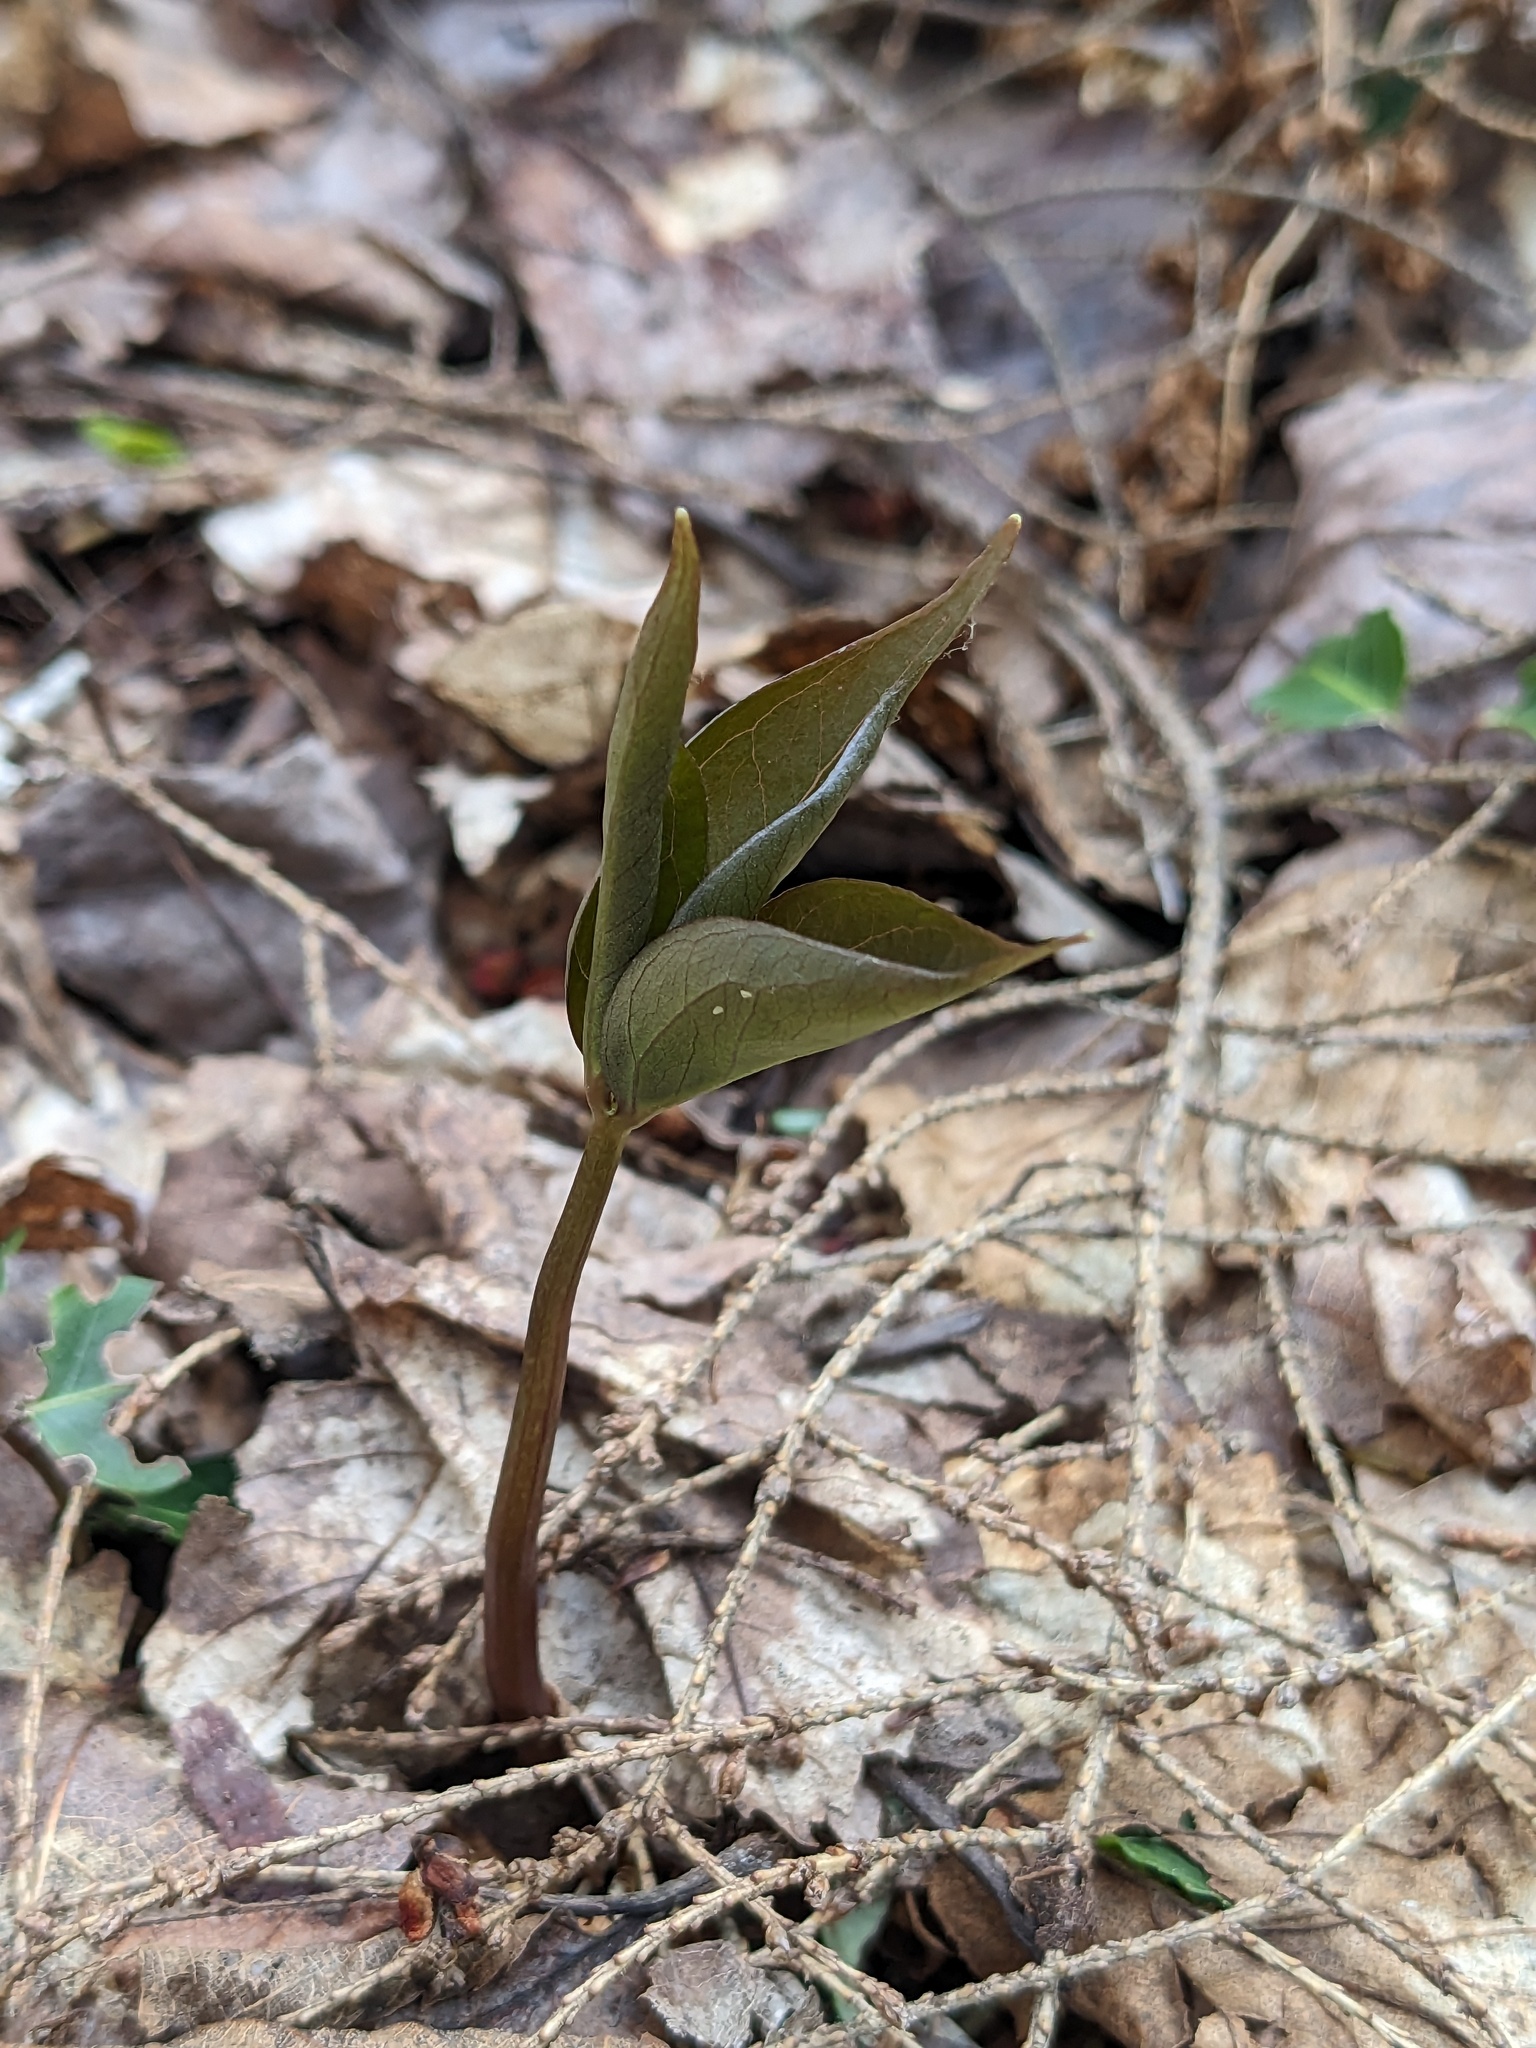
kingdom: Plantae
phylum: Tracheophyta
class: Liliopsida
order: Liliales
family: Melanthiaceae
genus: Trillium
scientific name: Trillium undulatum
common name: Paint trillium
